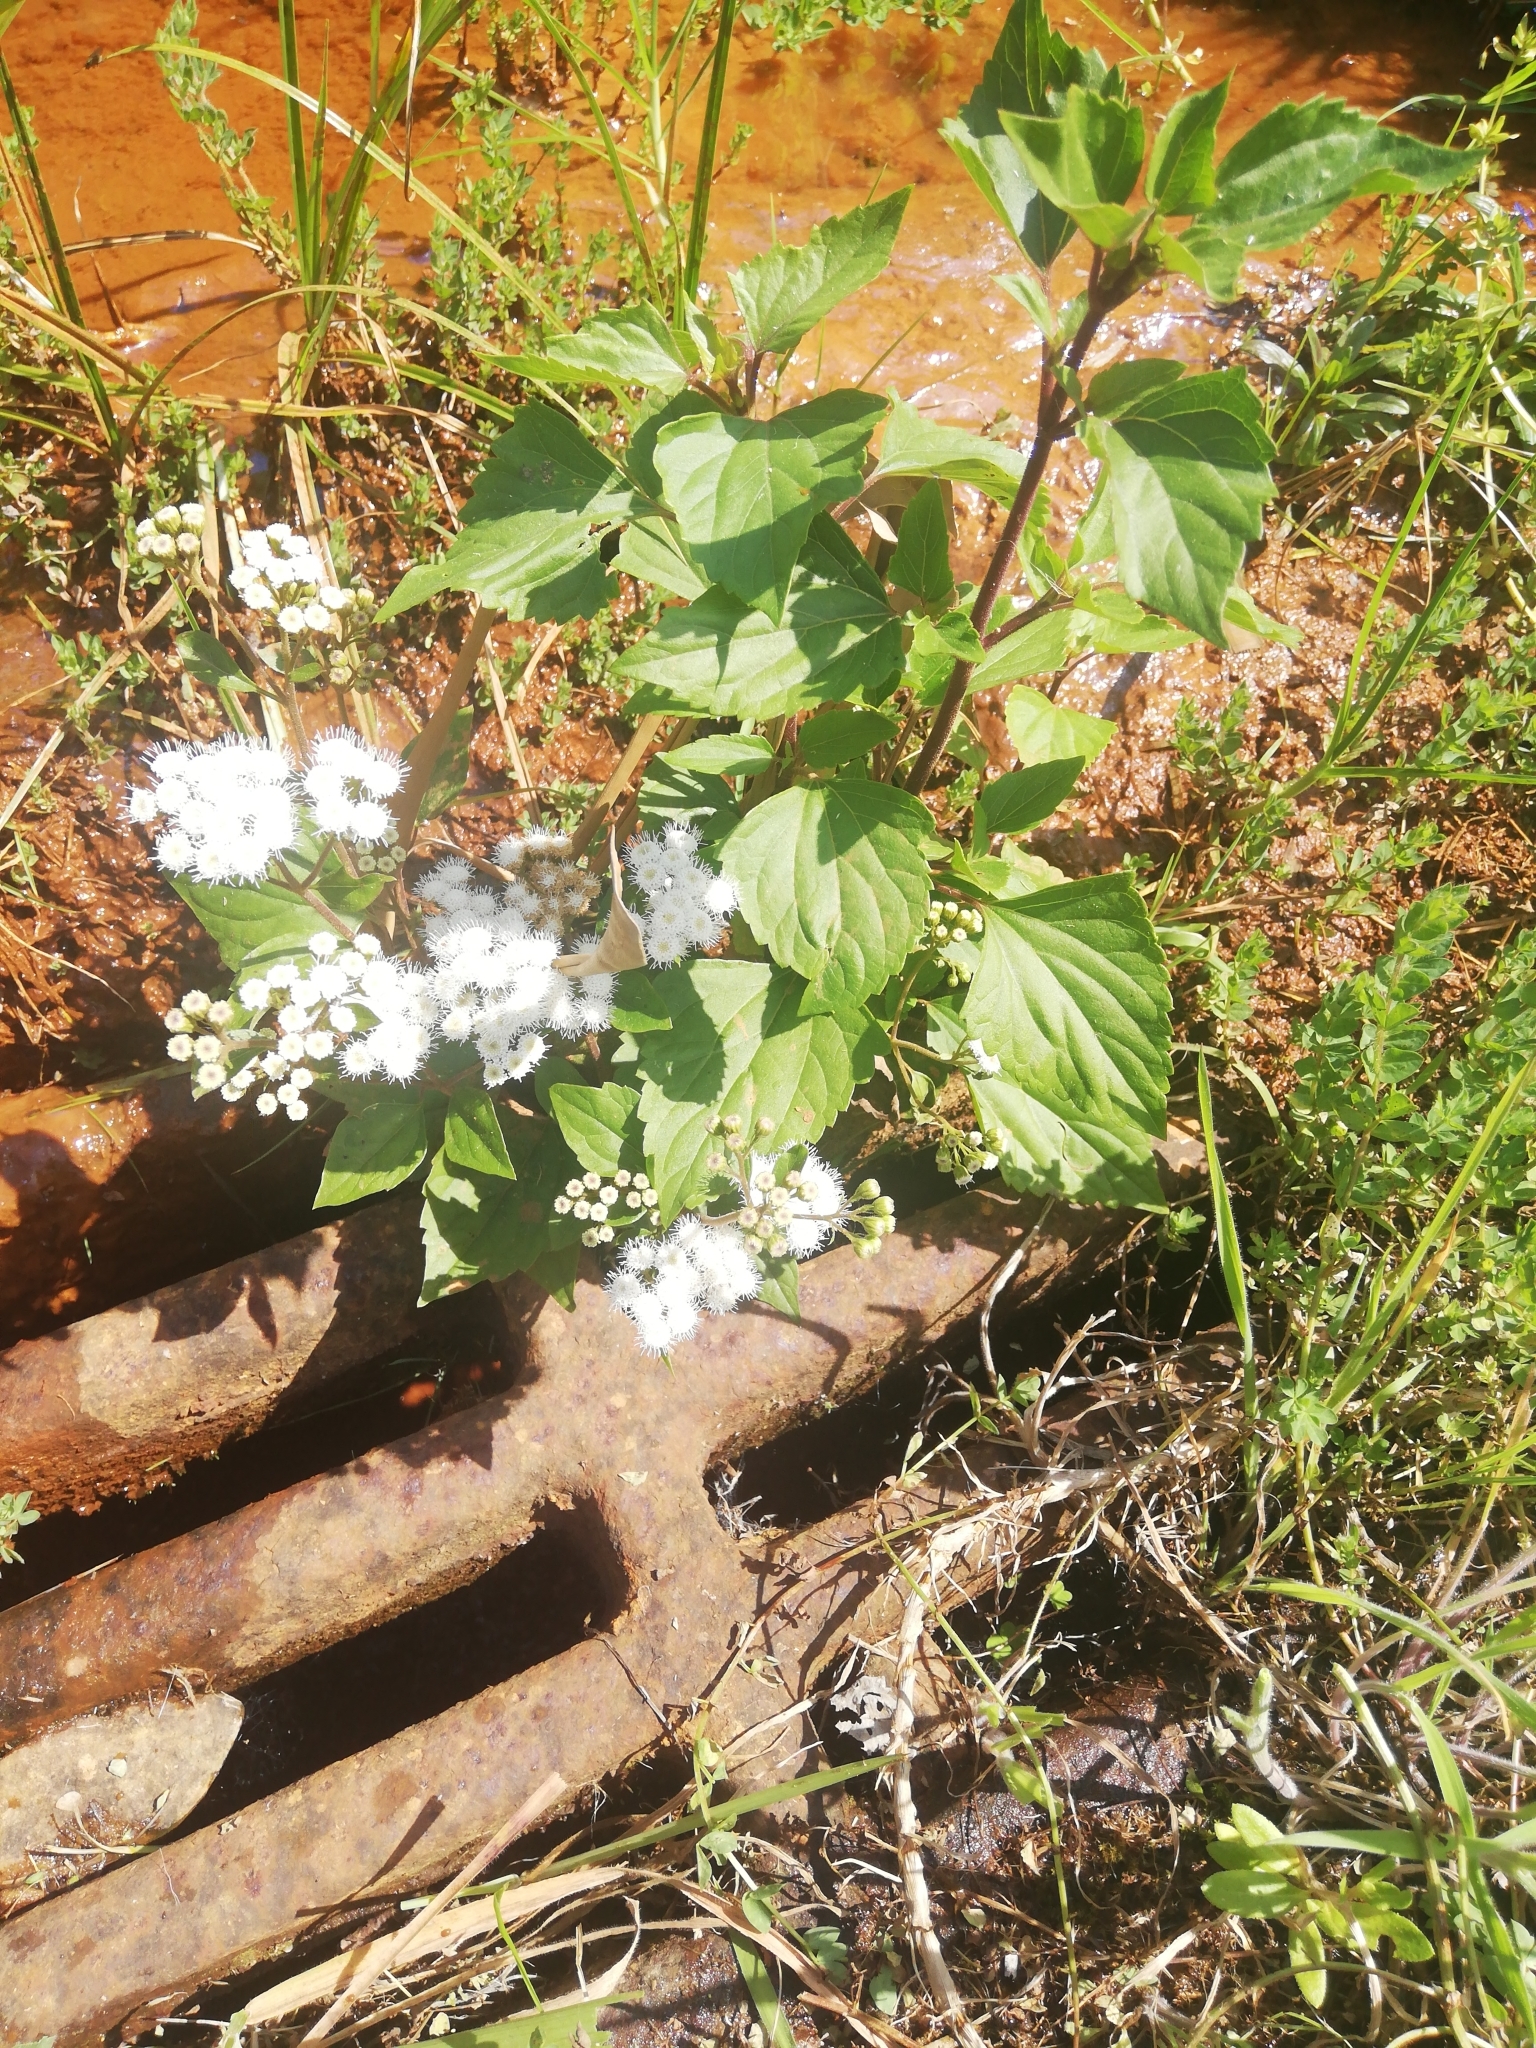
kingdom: Plantae
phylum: Tracheophyta
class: Magnoliopsida
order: Asterales
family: Asteraceae
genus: Ageratina
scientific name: Ageratina adenophora
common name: Sticky snakeroot
